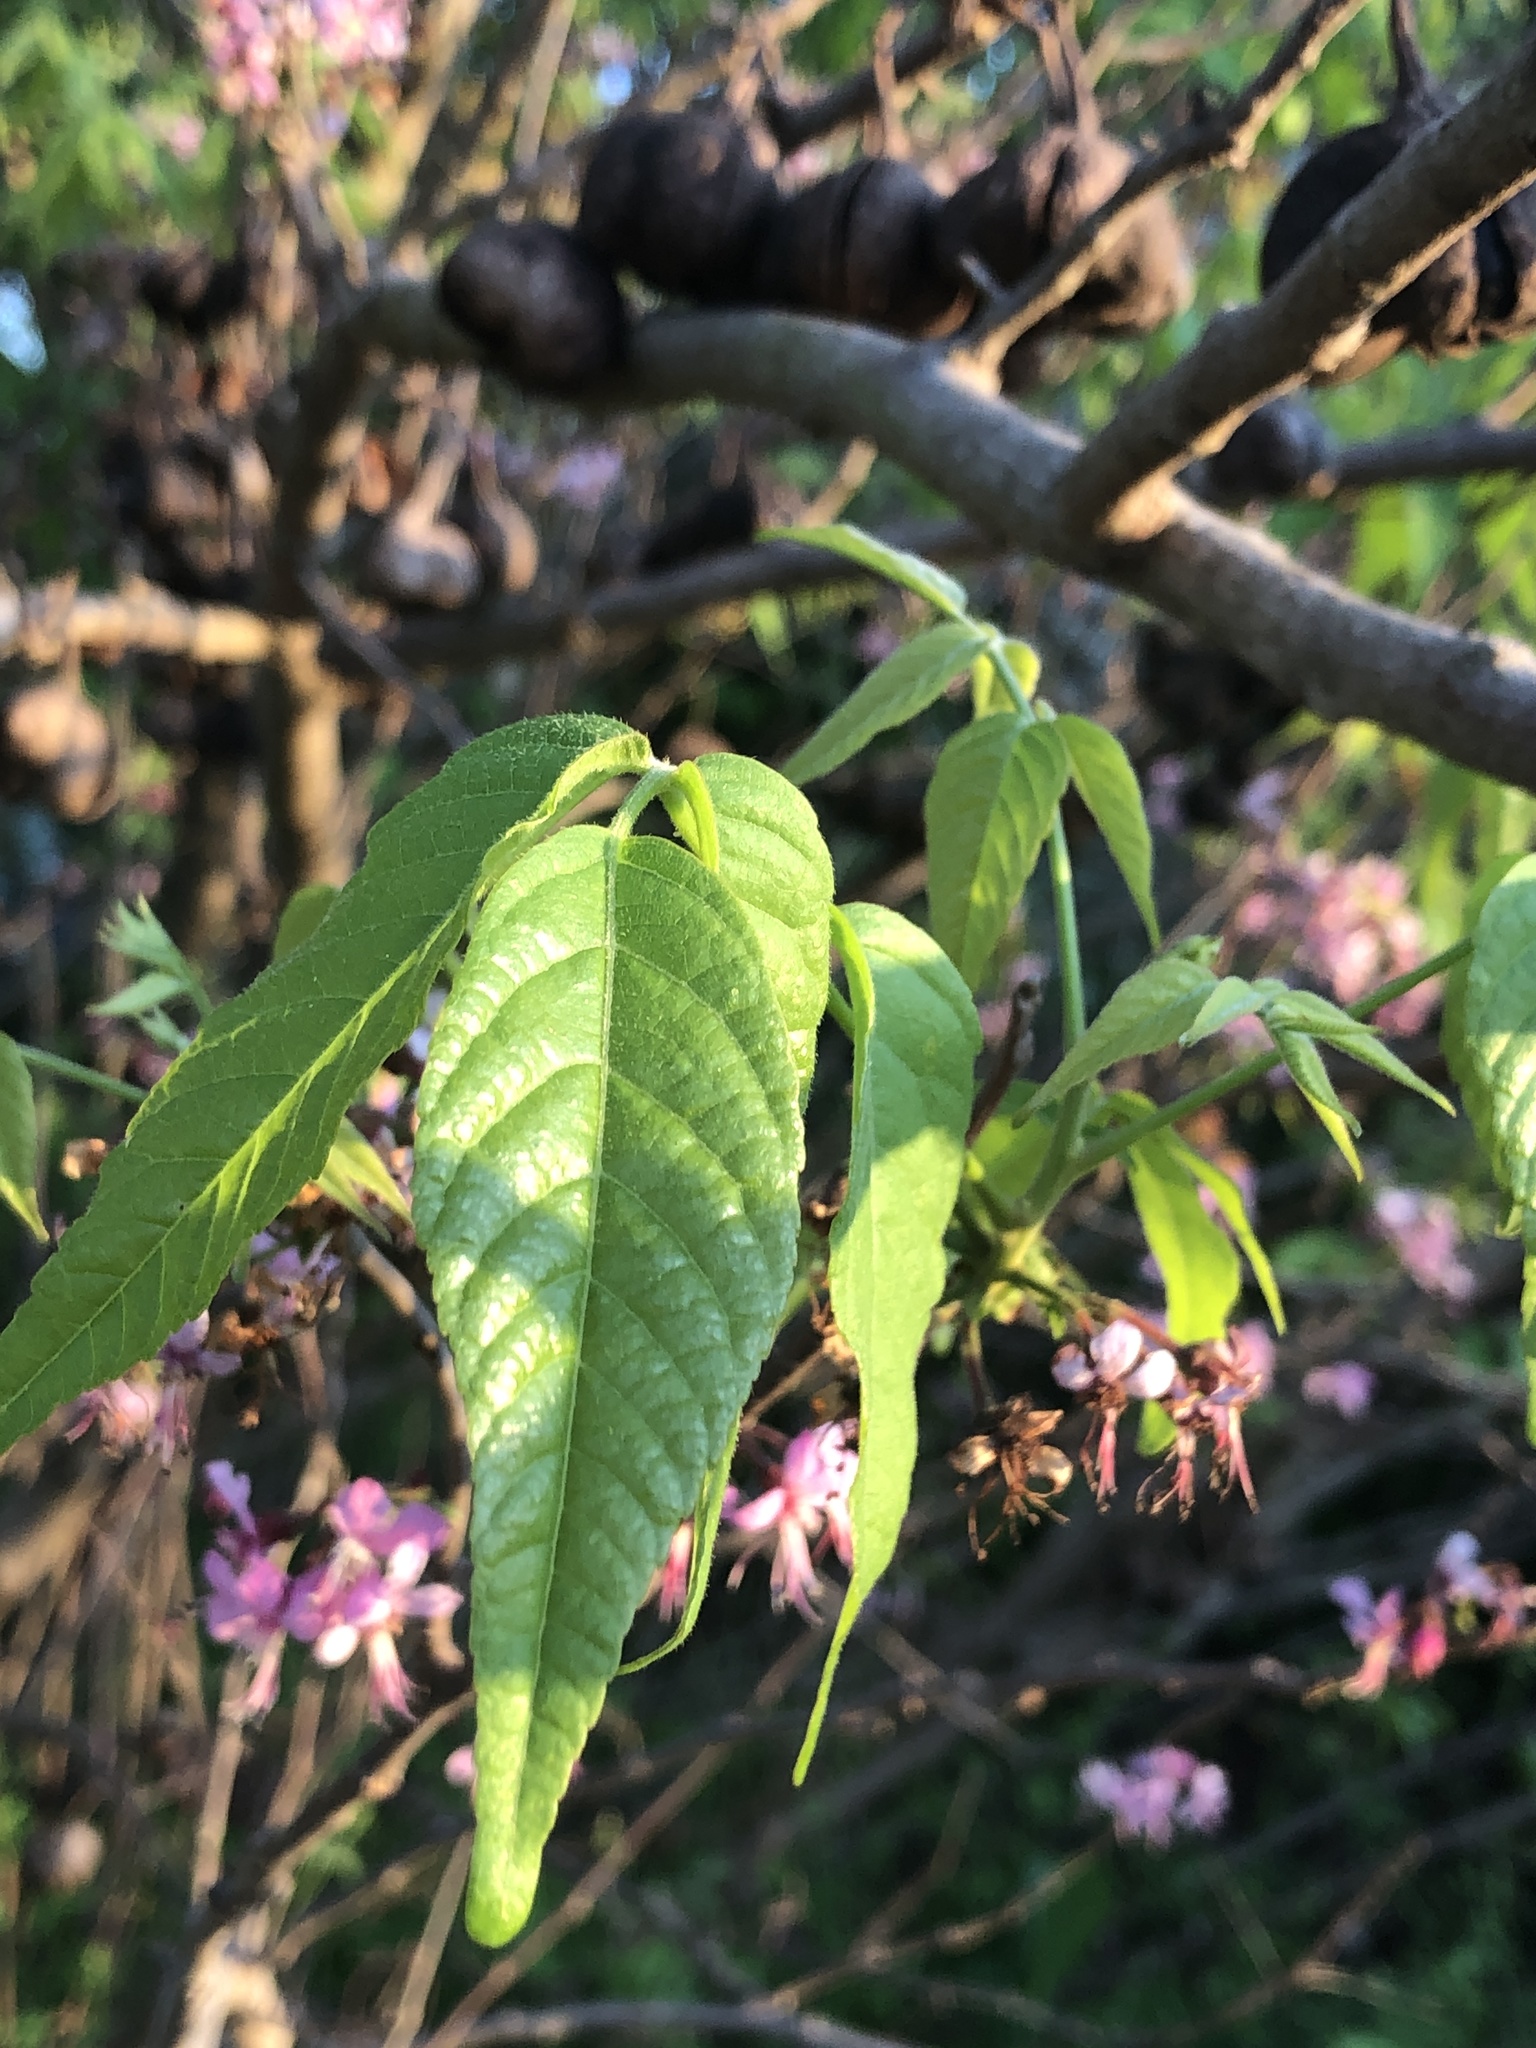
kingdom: Plantae
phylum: Tracheophyta
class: Magnoliopsida
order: Sapindales
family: Sapindaceae
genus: Ungnadia
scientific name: Ungnadia speciosa
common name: Texas-buckeye
